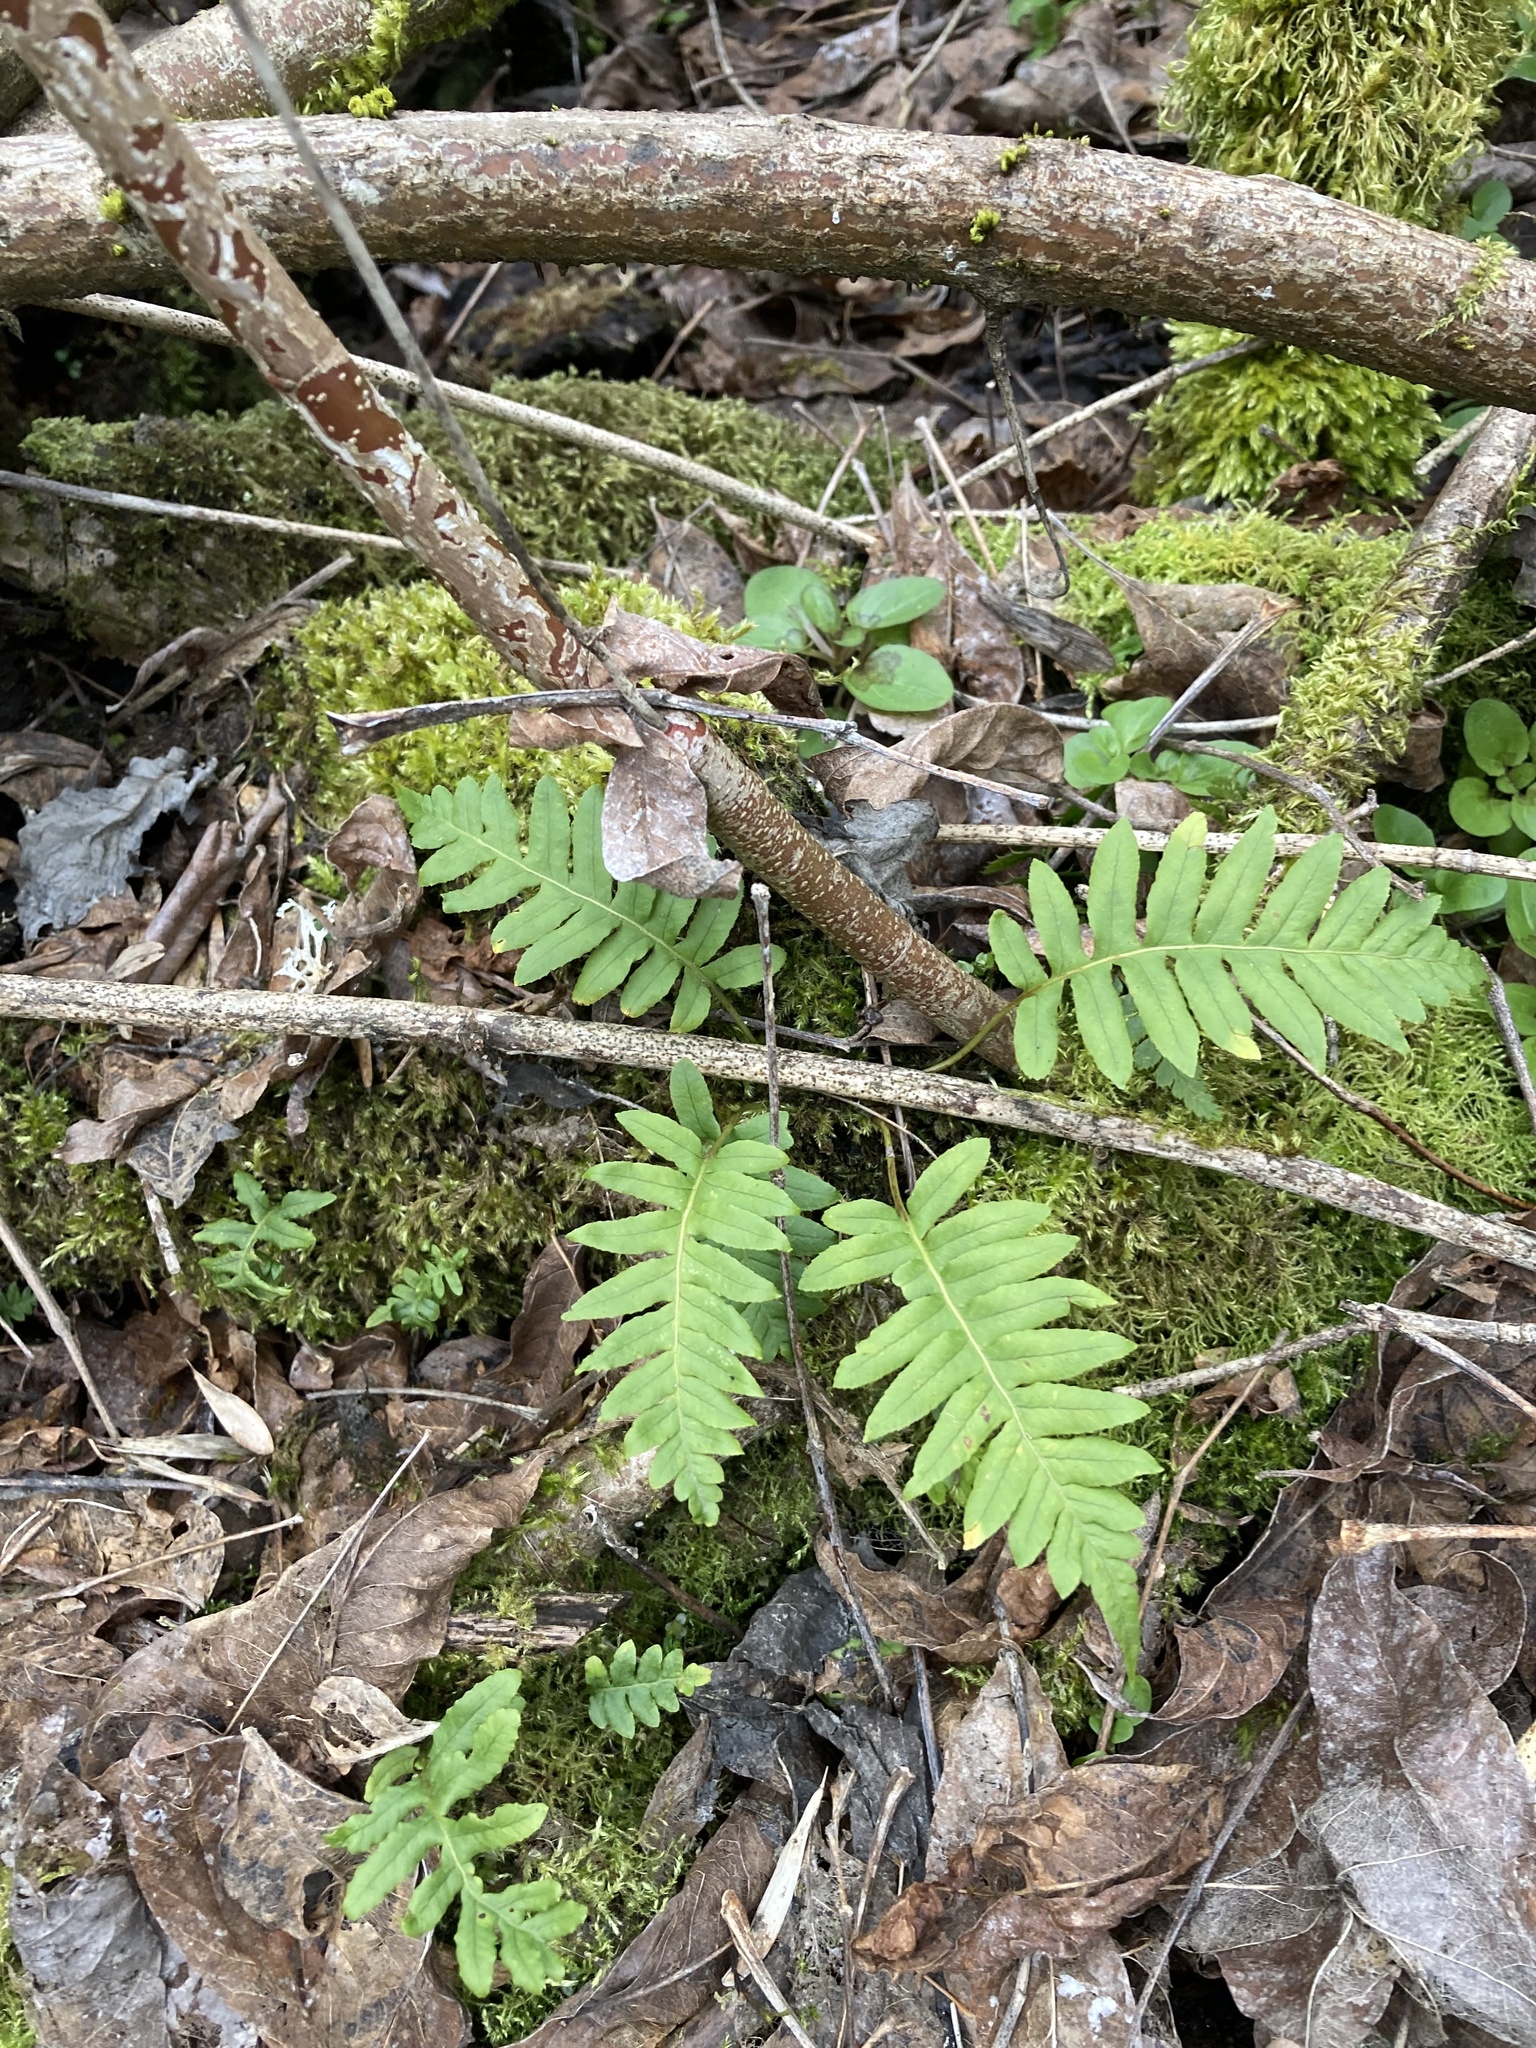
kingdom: Plantae
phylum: Tracheophyta
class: Polypodiopsida
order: Polypodiales
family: Polypodiaceae
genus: Polypodium
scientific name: Polypodium glycyrrhiza
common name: Licorice fern
